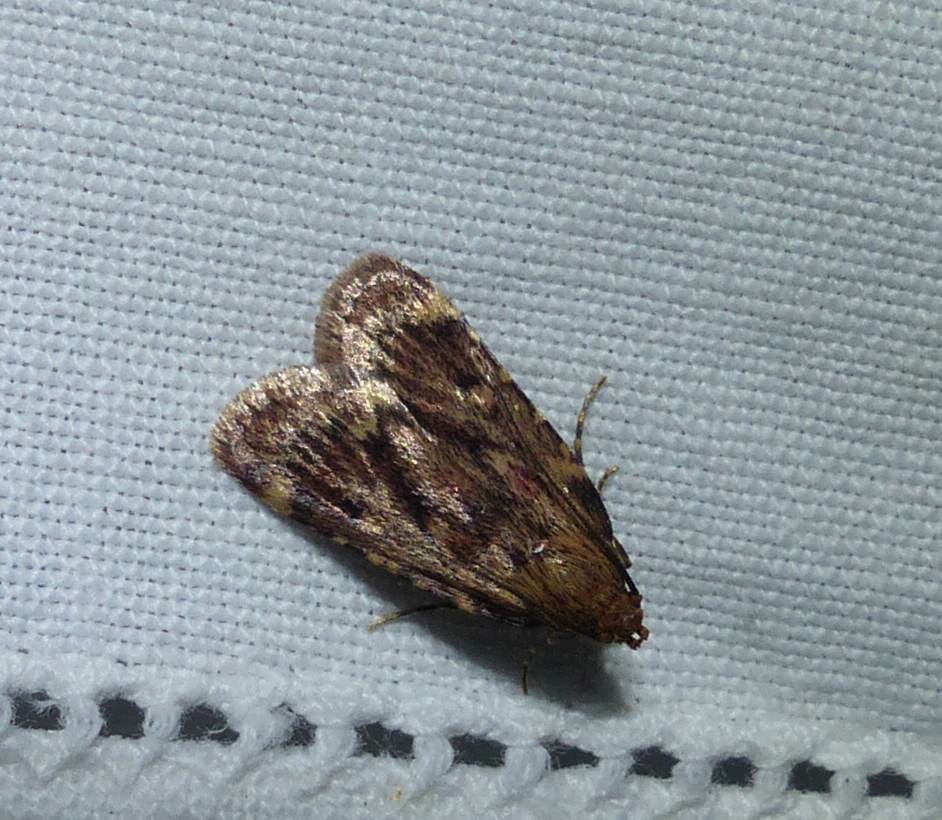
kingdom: Animalia
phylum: Arthropoda
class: Insecta
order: Lepidoptera
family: Pyralidae
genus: Aglossa
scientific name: Aglossa cuprina
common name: Grease moth
